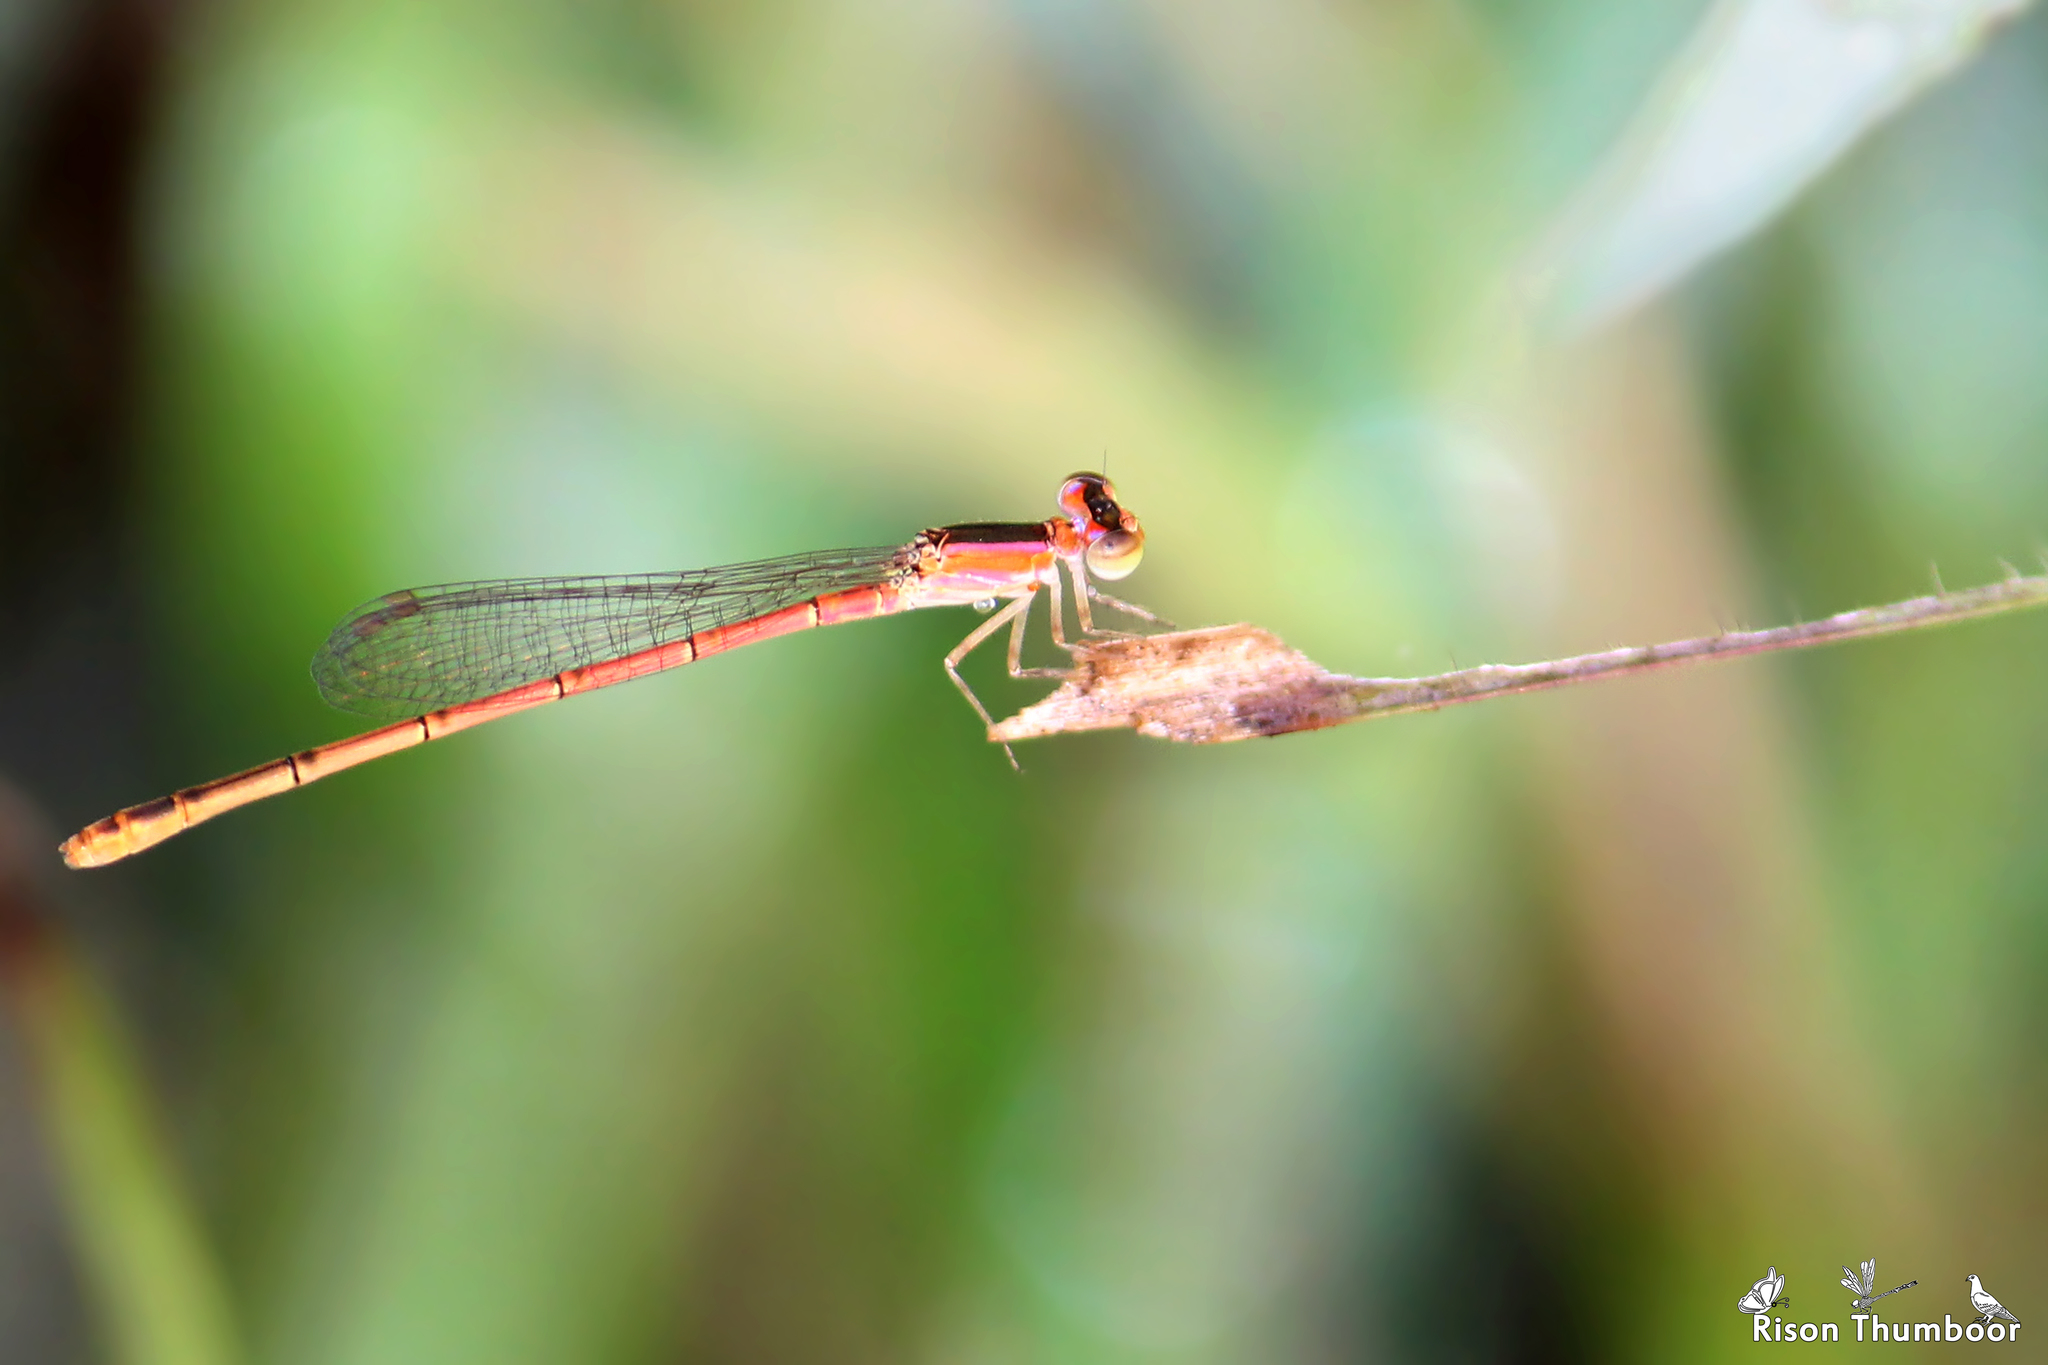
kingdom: Animalia
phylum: Arthropoda
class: Insecta
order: Odonata
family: Coenagrionidae
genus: Agriocnemis
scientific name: Agriocnemis keralensis
